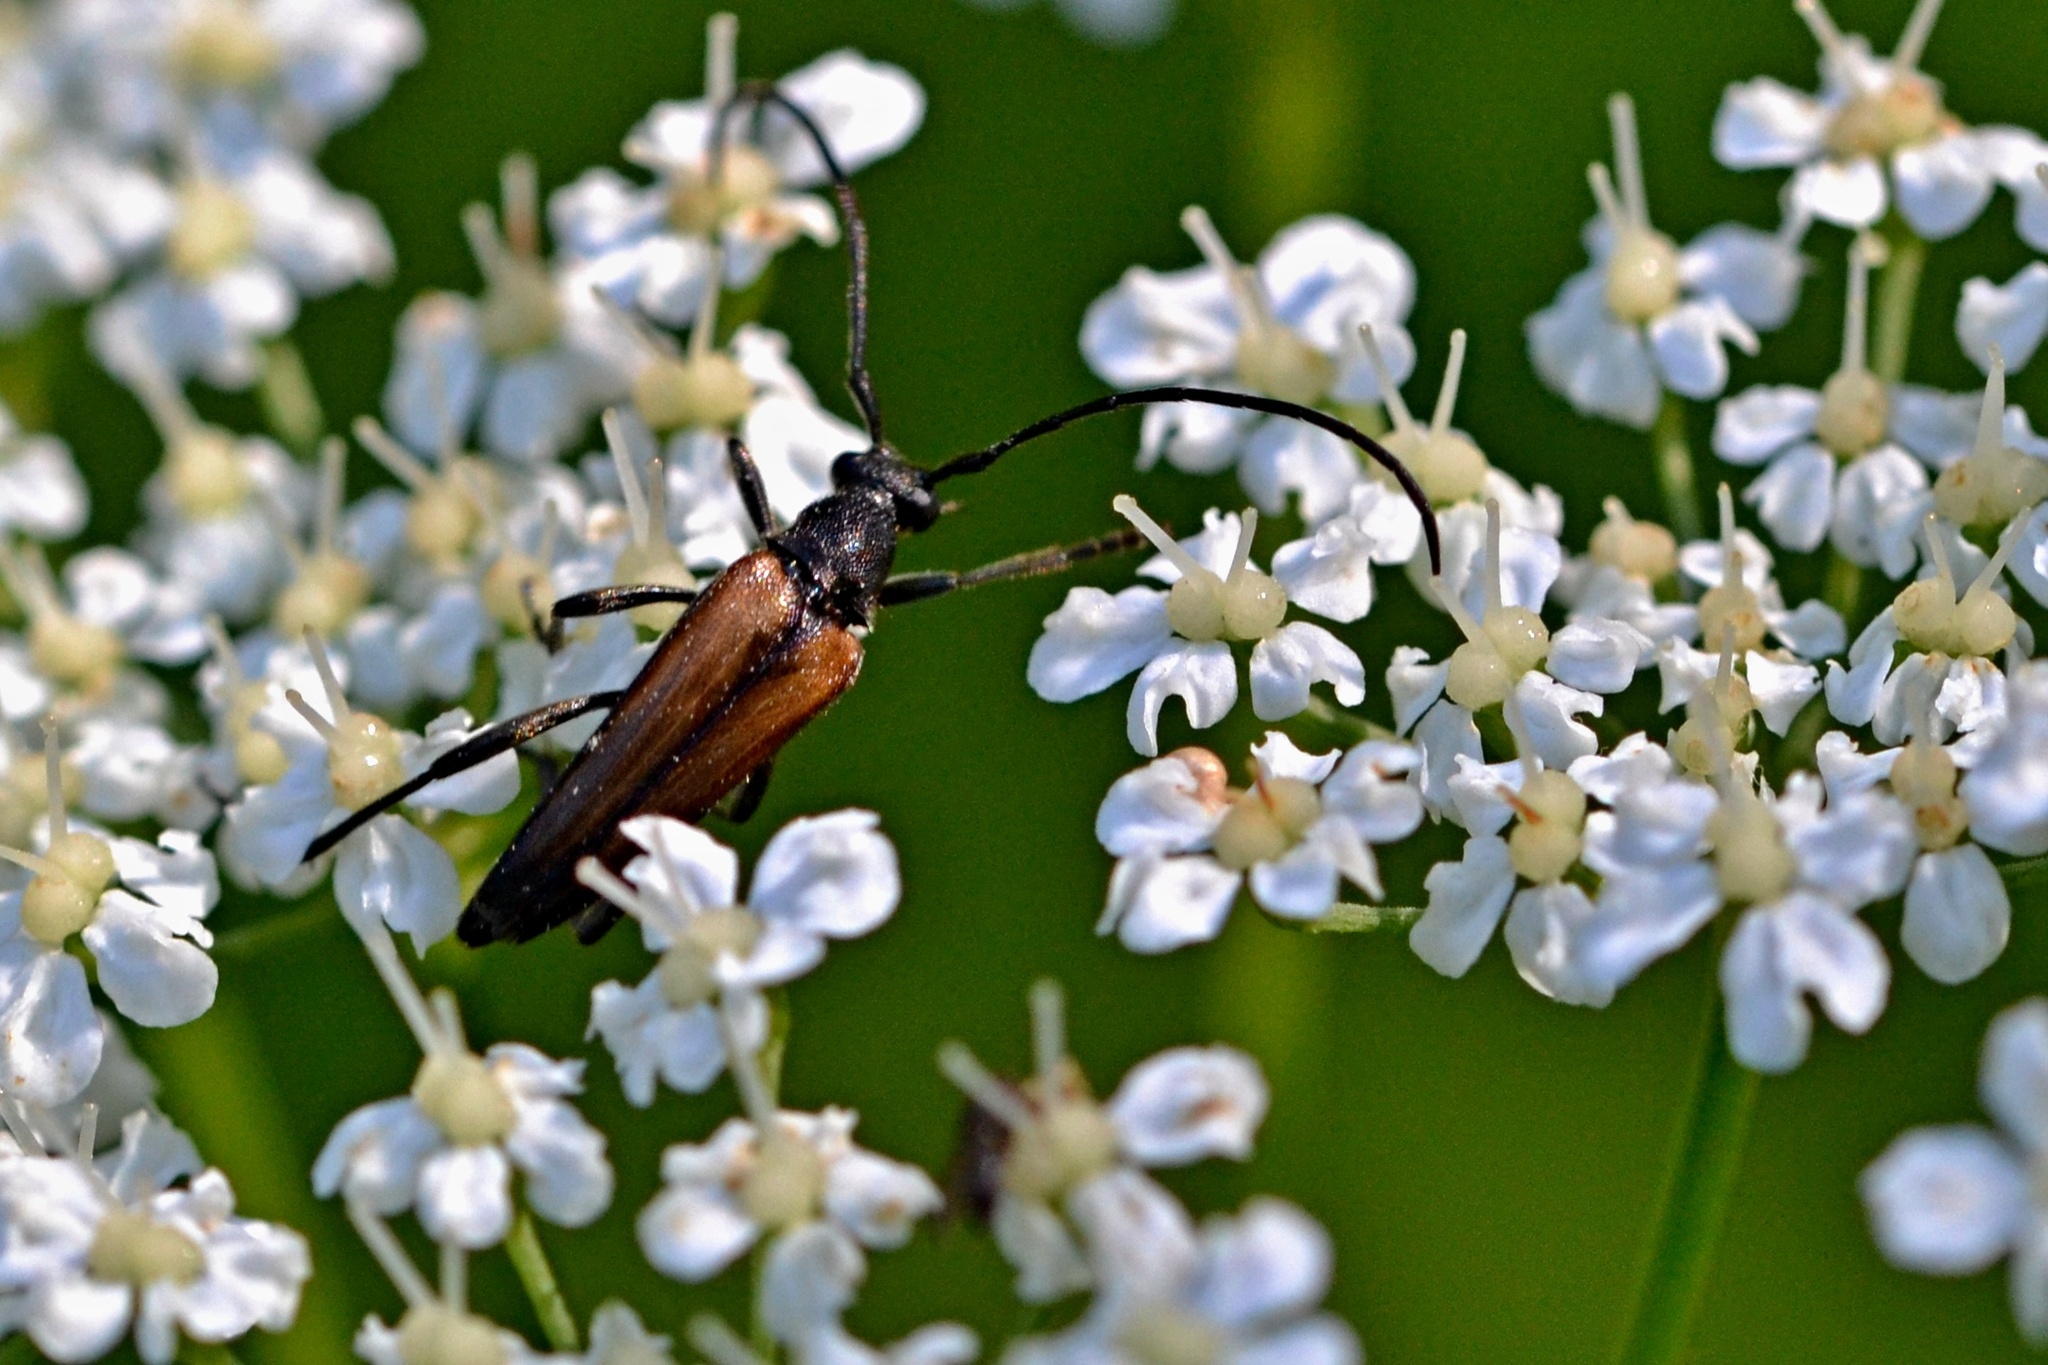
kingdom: Animalia
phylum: Arthropoda
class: Insecta
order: Coleoptera
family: Cerambycidae
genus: Stenurella
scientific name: Stenurella melanura
